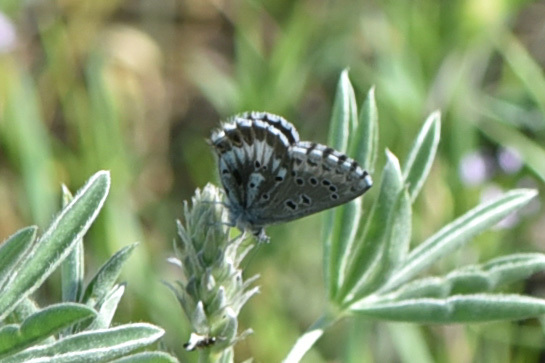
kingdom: Animalia
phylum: Arthropoda
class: Insecta
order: Lepidoptera
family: Lycaenidae
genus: Glaucopsyche
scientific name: Glaucopsyche piasus
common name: Arrowhead blue
